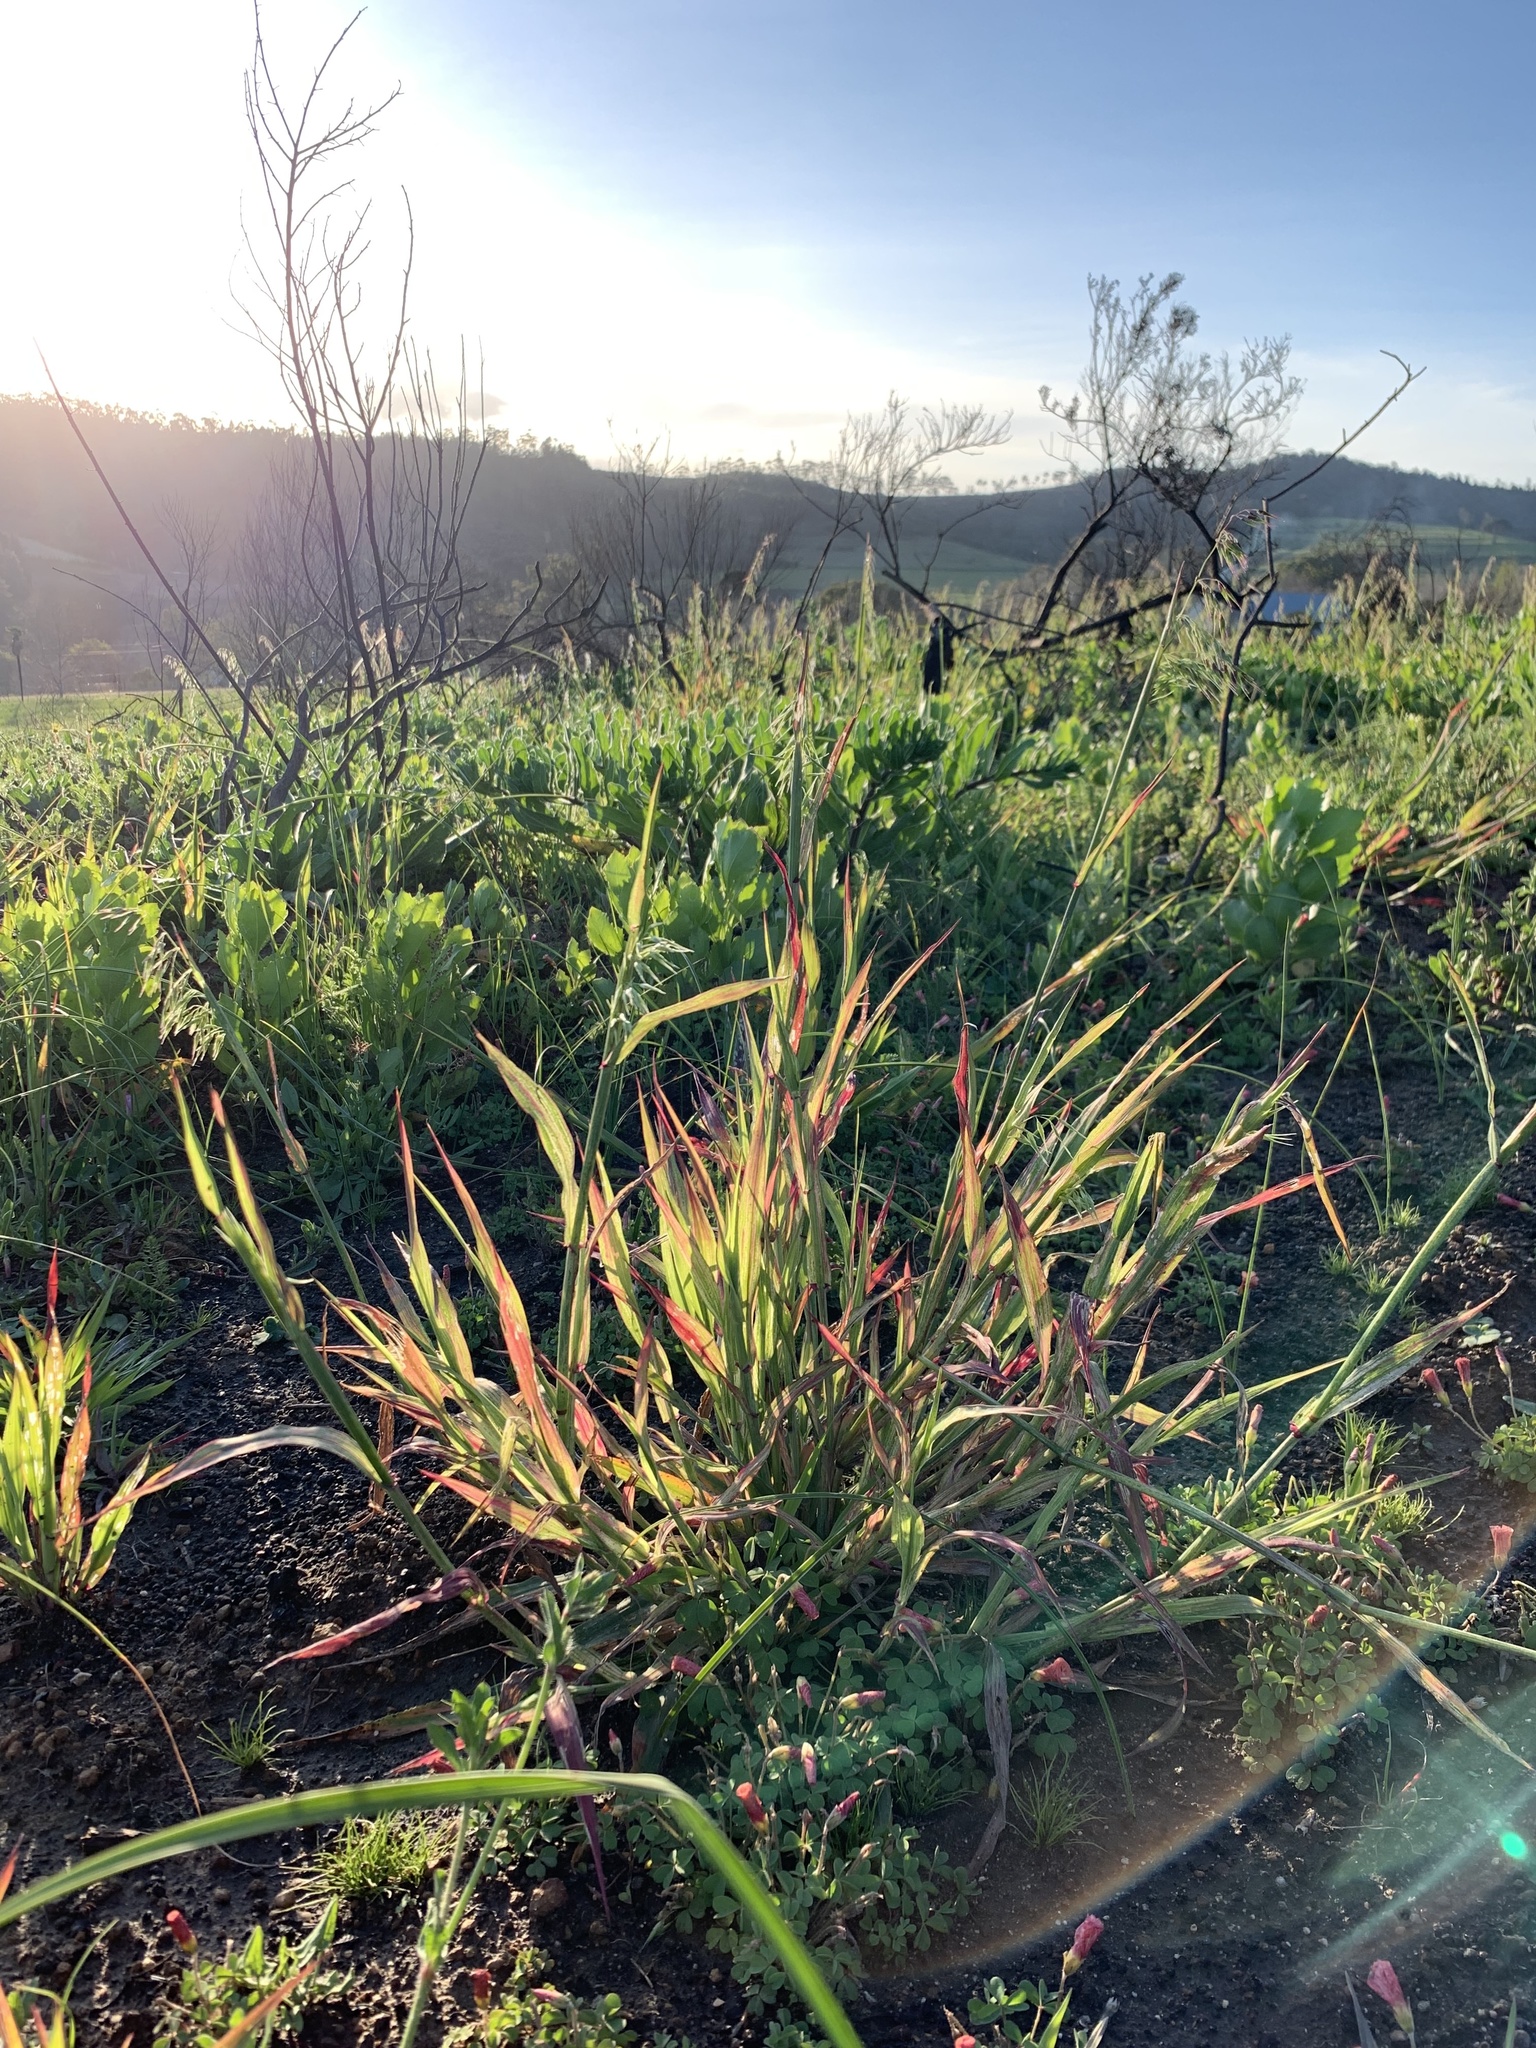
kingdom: Plantae
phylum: Tracheophyta
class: Liliopsida
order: Poales
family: Poaceae
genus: Ehrharta
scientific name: Ehrharta longiflora
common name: Longflowered veldtgrass
